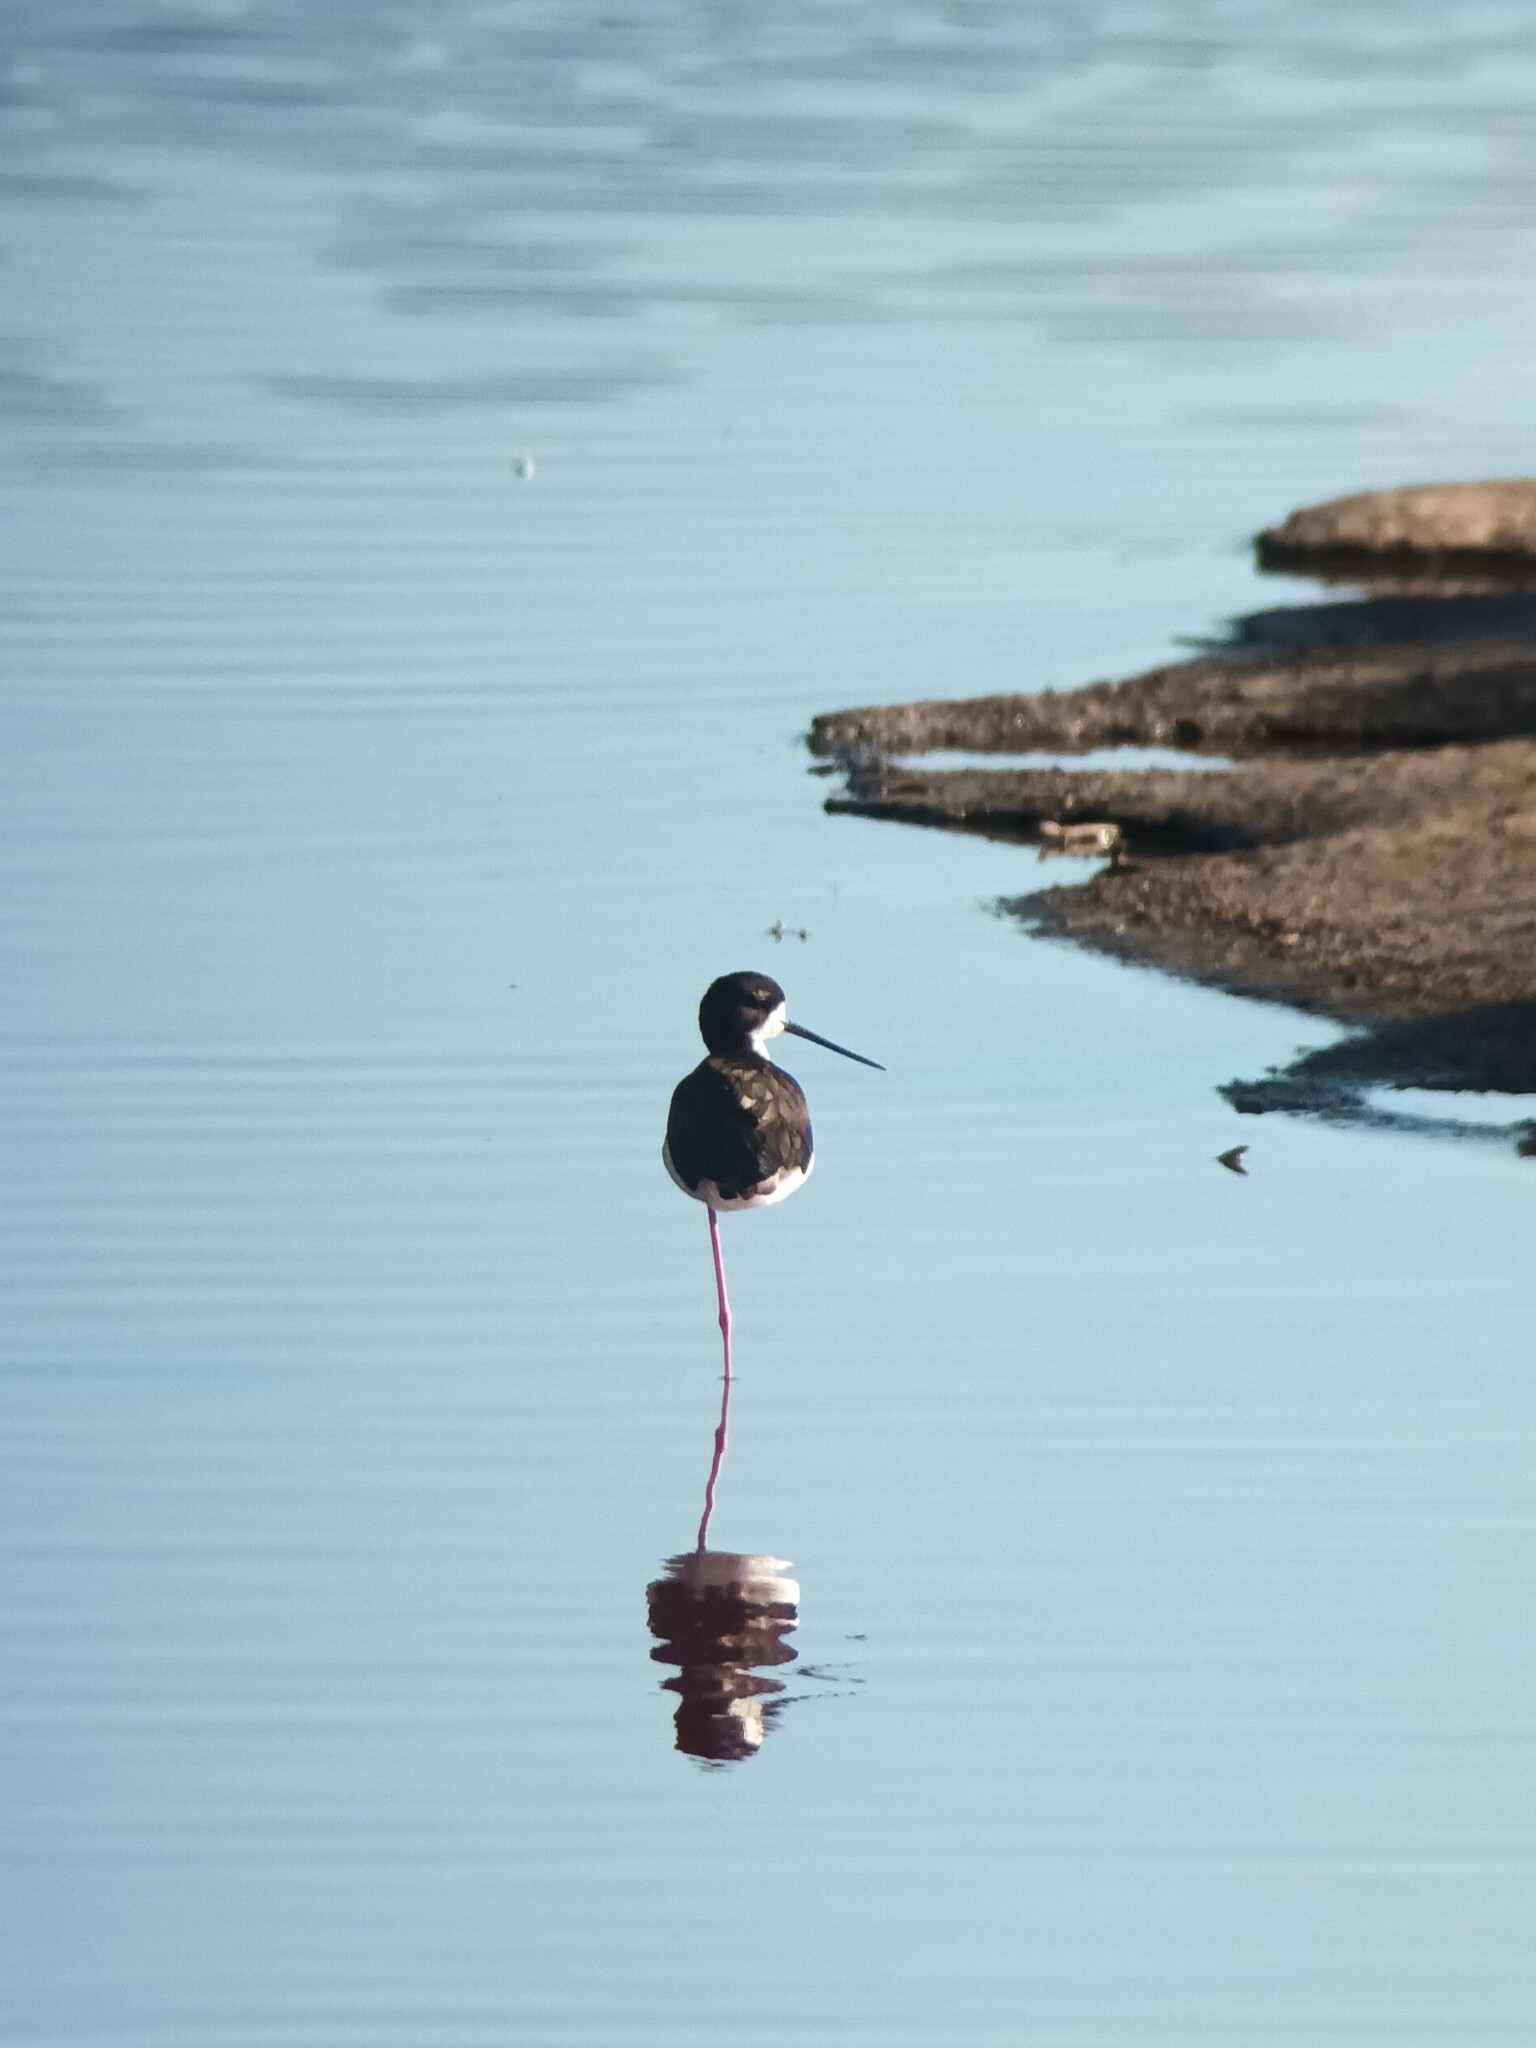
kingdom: Animalia
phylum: Chordata
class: Aves
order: Charadriiformes
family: Recurvirostridae
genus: Himantopus
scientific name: Himantopus mexicanus
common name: Black-necked stilt
